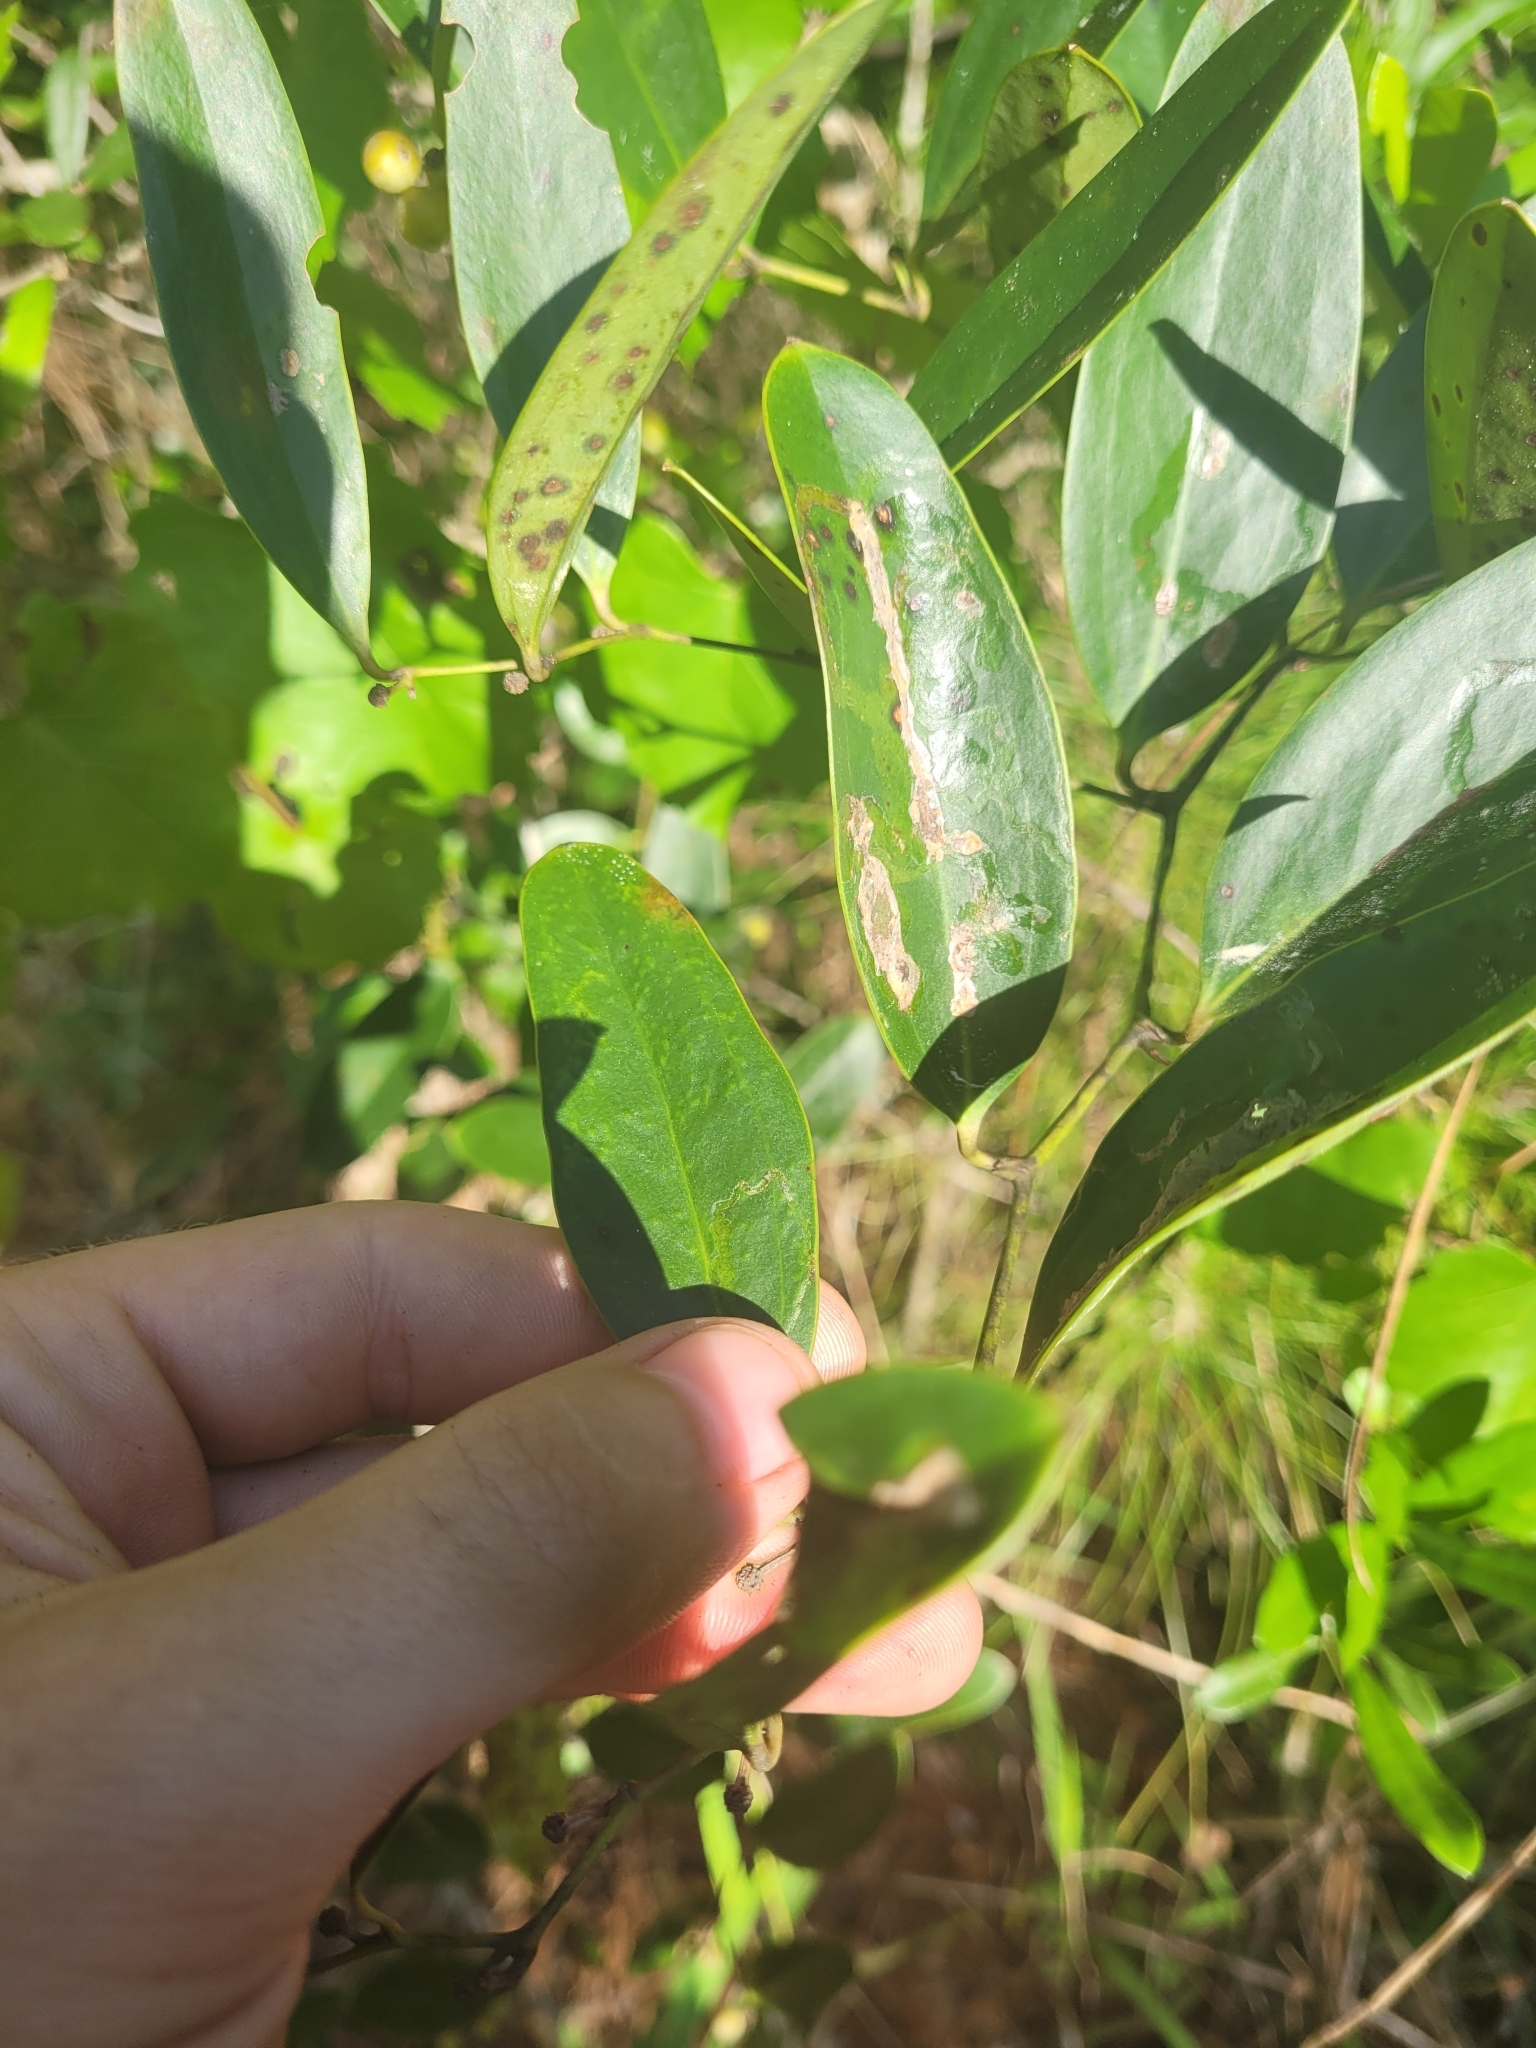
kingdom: Plantae
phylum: Tracheophyta
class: Liliopsida
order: Liliales
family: Smilacaceae
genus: Smilax
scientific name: Smilax laurifolia
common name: Bamboovine
